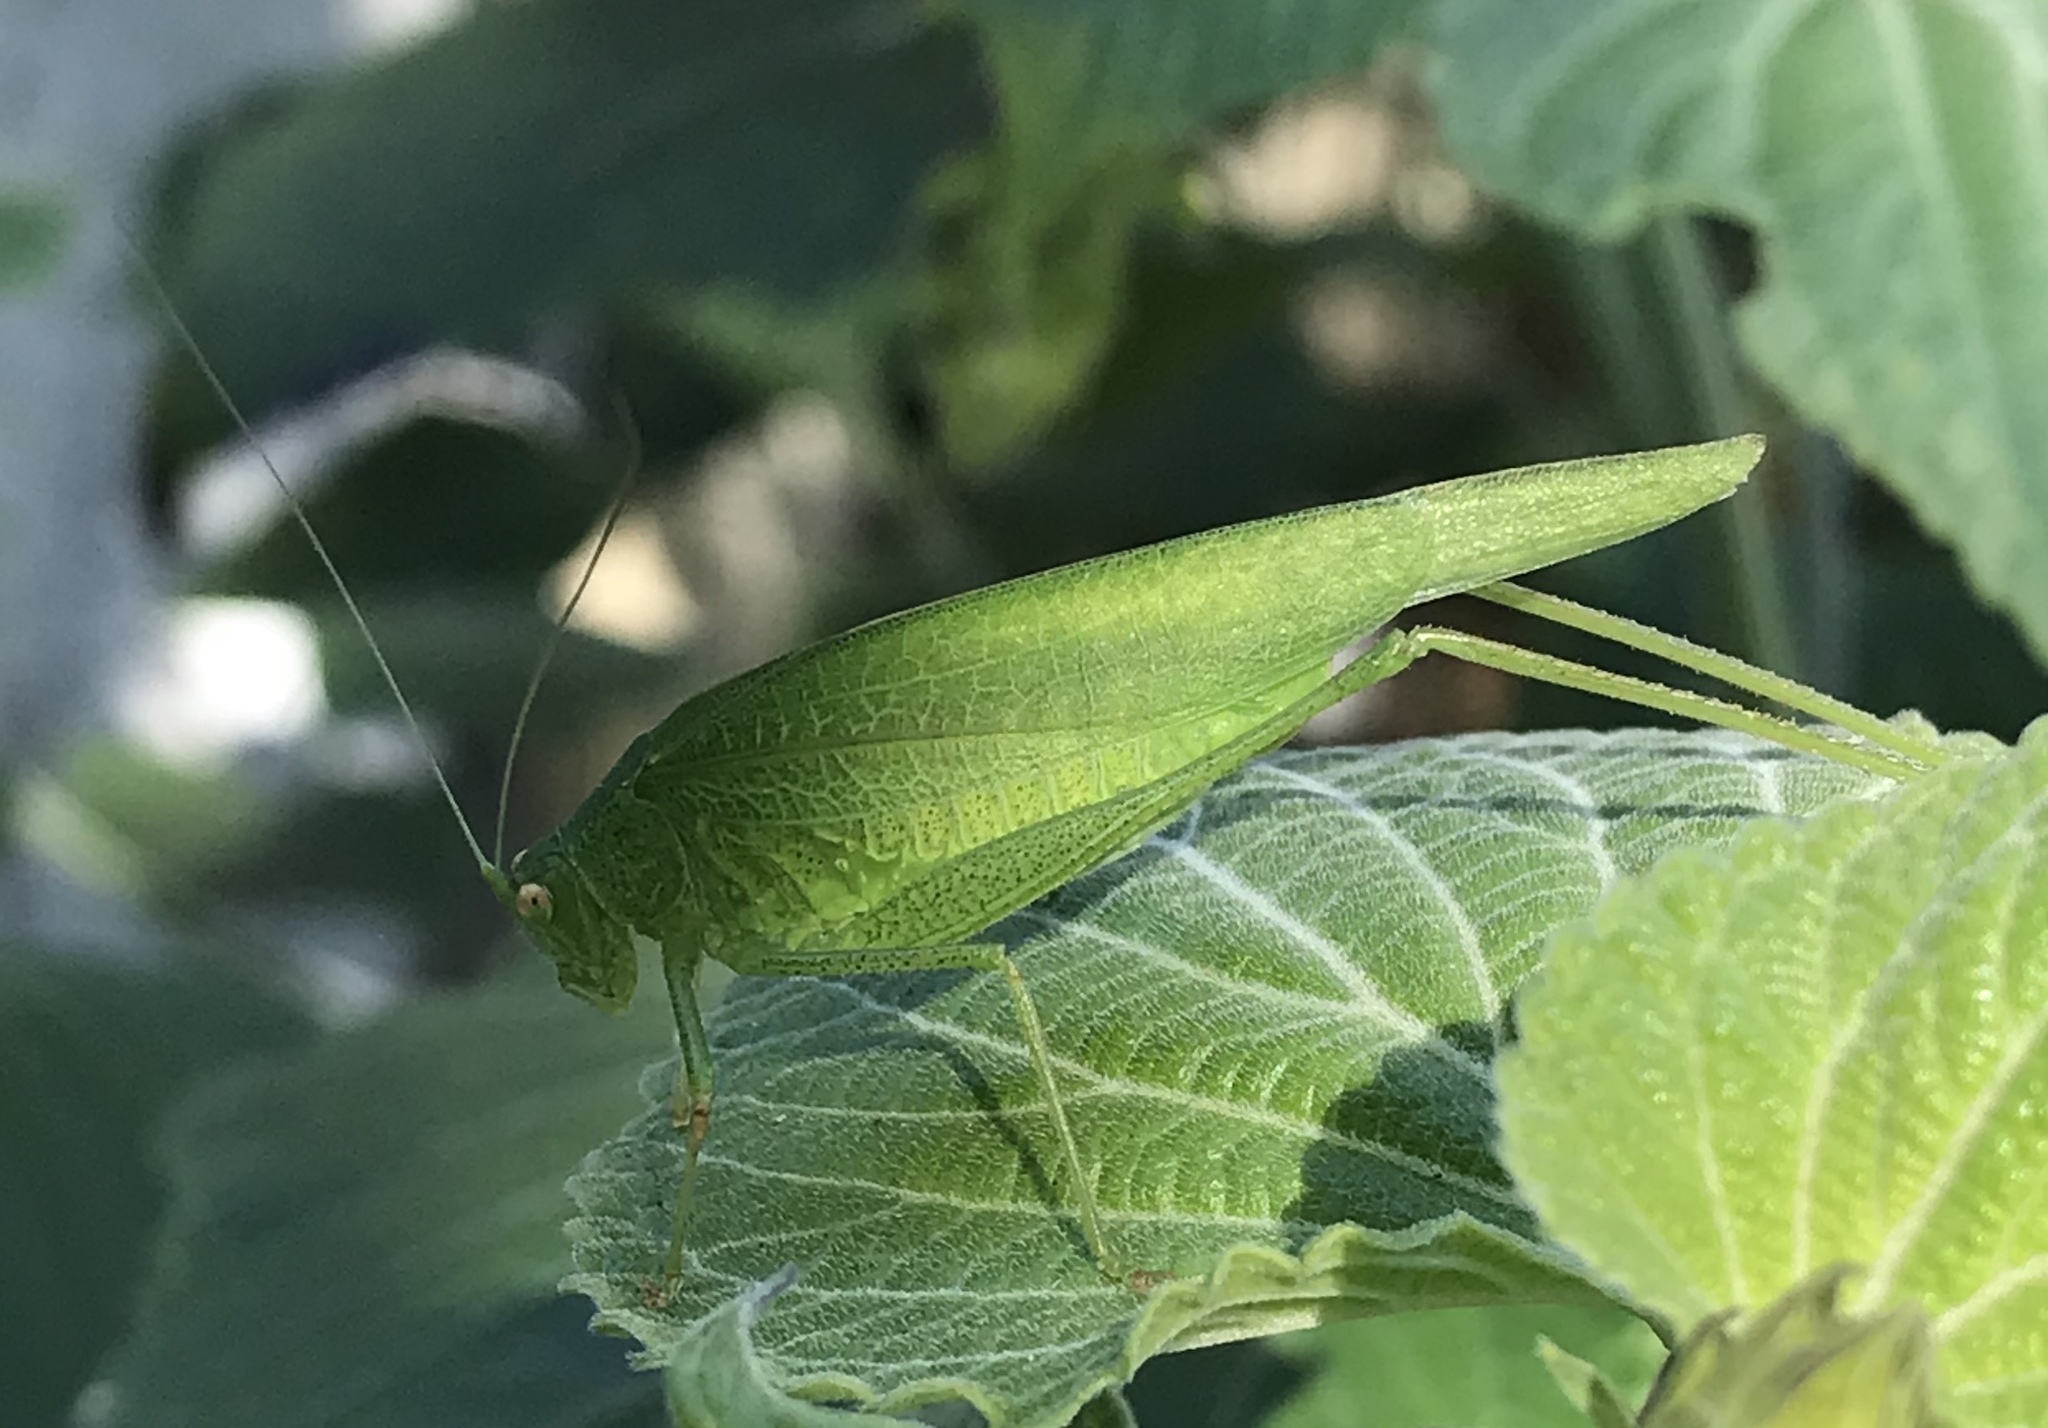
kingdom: Animalia
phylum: Arthropoda
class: Insecta
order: Orthoptera
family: Tettigoniidae
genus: Phaneroptera
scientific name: Phaneroptera nana
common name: Southern sickle bush-cricket
